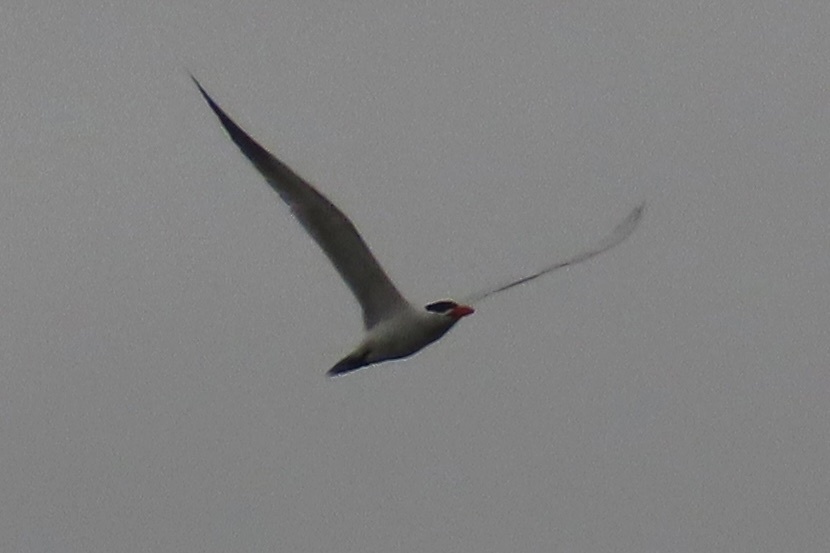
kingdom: Animalia
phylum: Chordata
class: Aves
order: Charadriiformes
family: Laridae
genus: Hydroprogne
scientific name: Hydroprogne caspia
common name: Caspian tern
